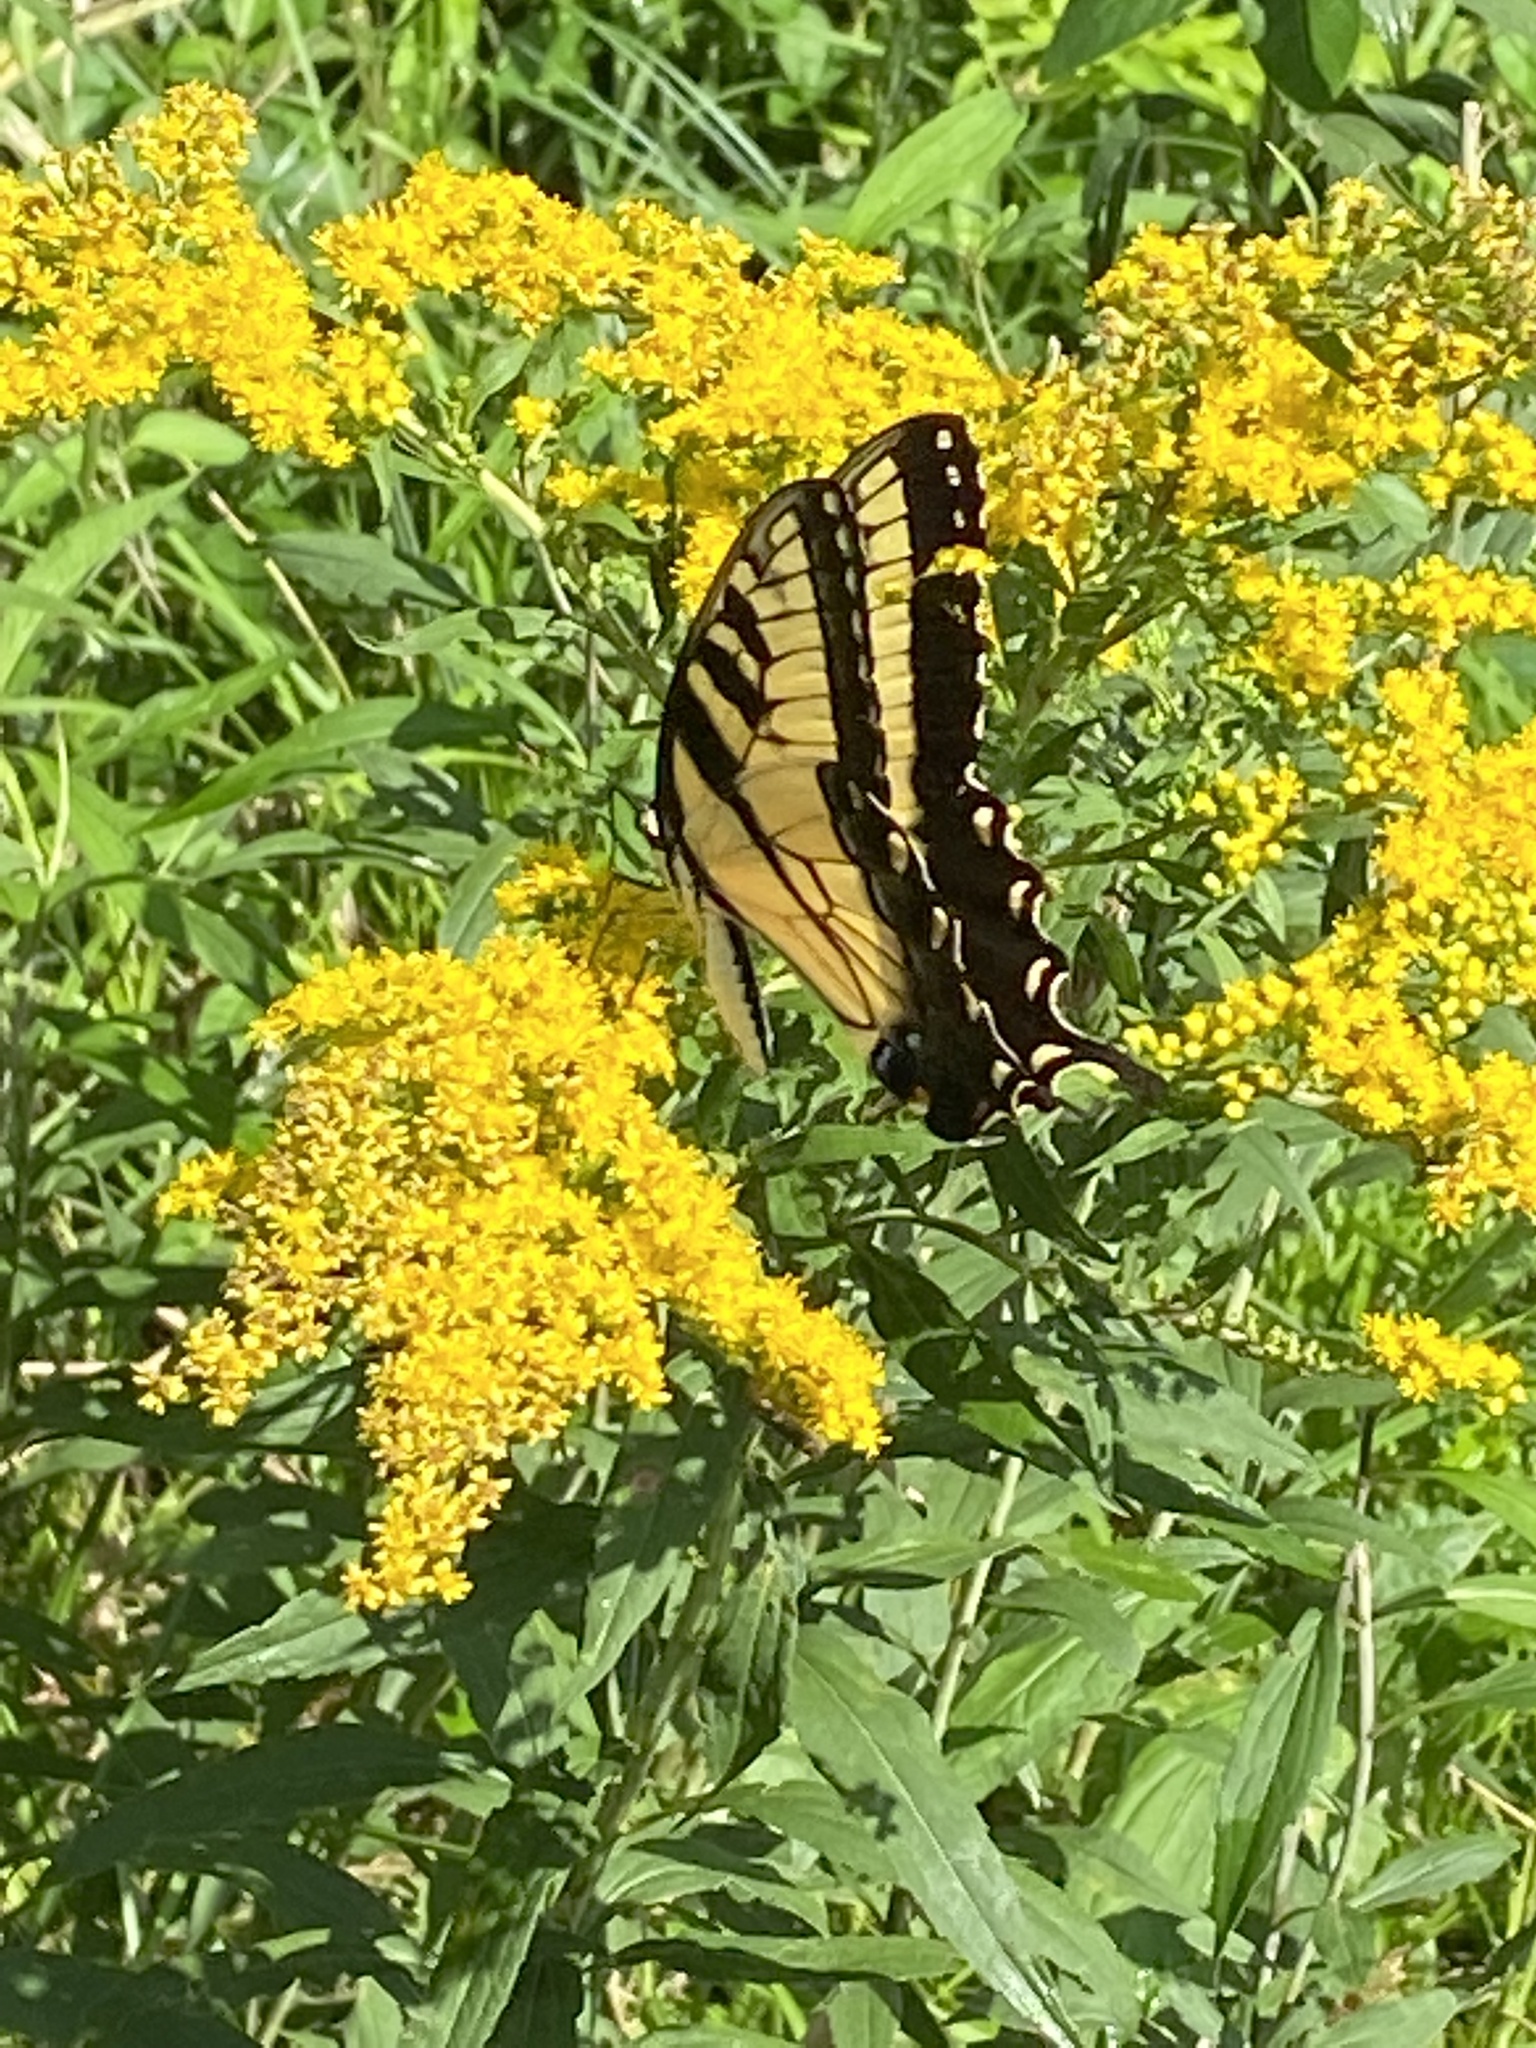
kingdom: Animalia
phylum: Arthropoda
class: Insecta
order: Lepidoptera
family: Papilionidae
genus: Papilio
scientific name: Papilio glaucus
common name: Tiger swallowtail
